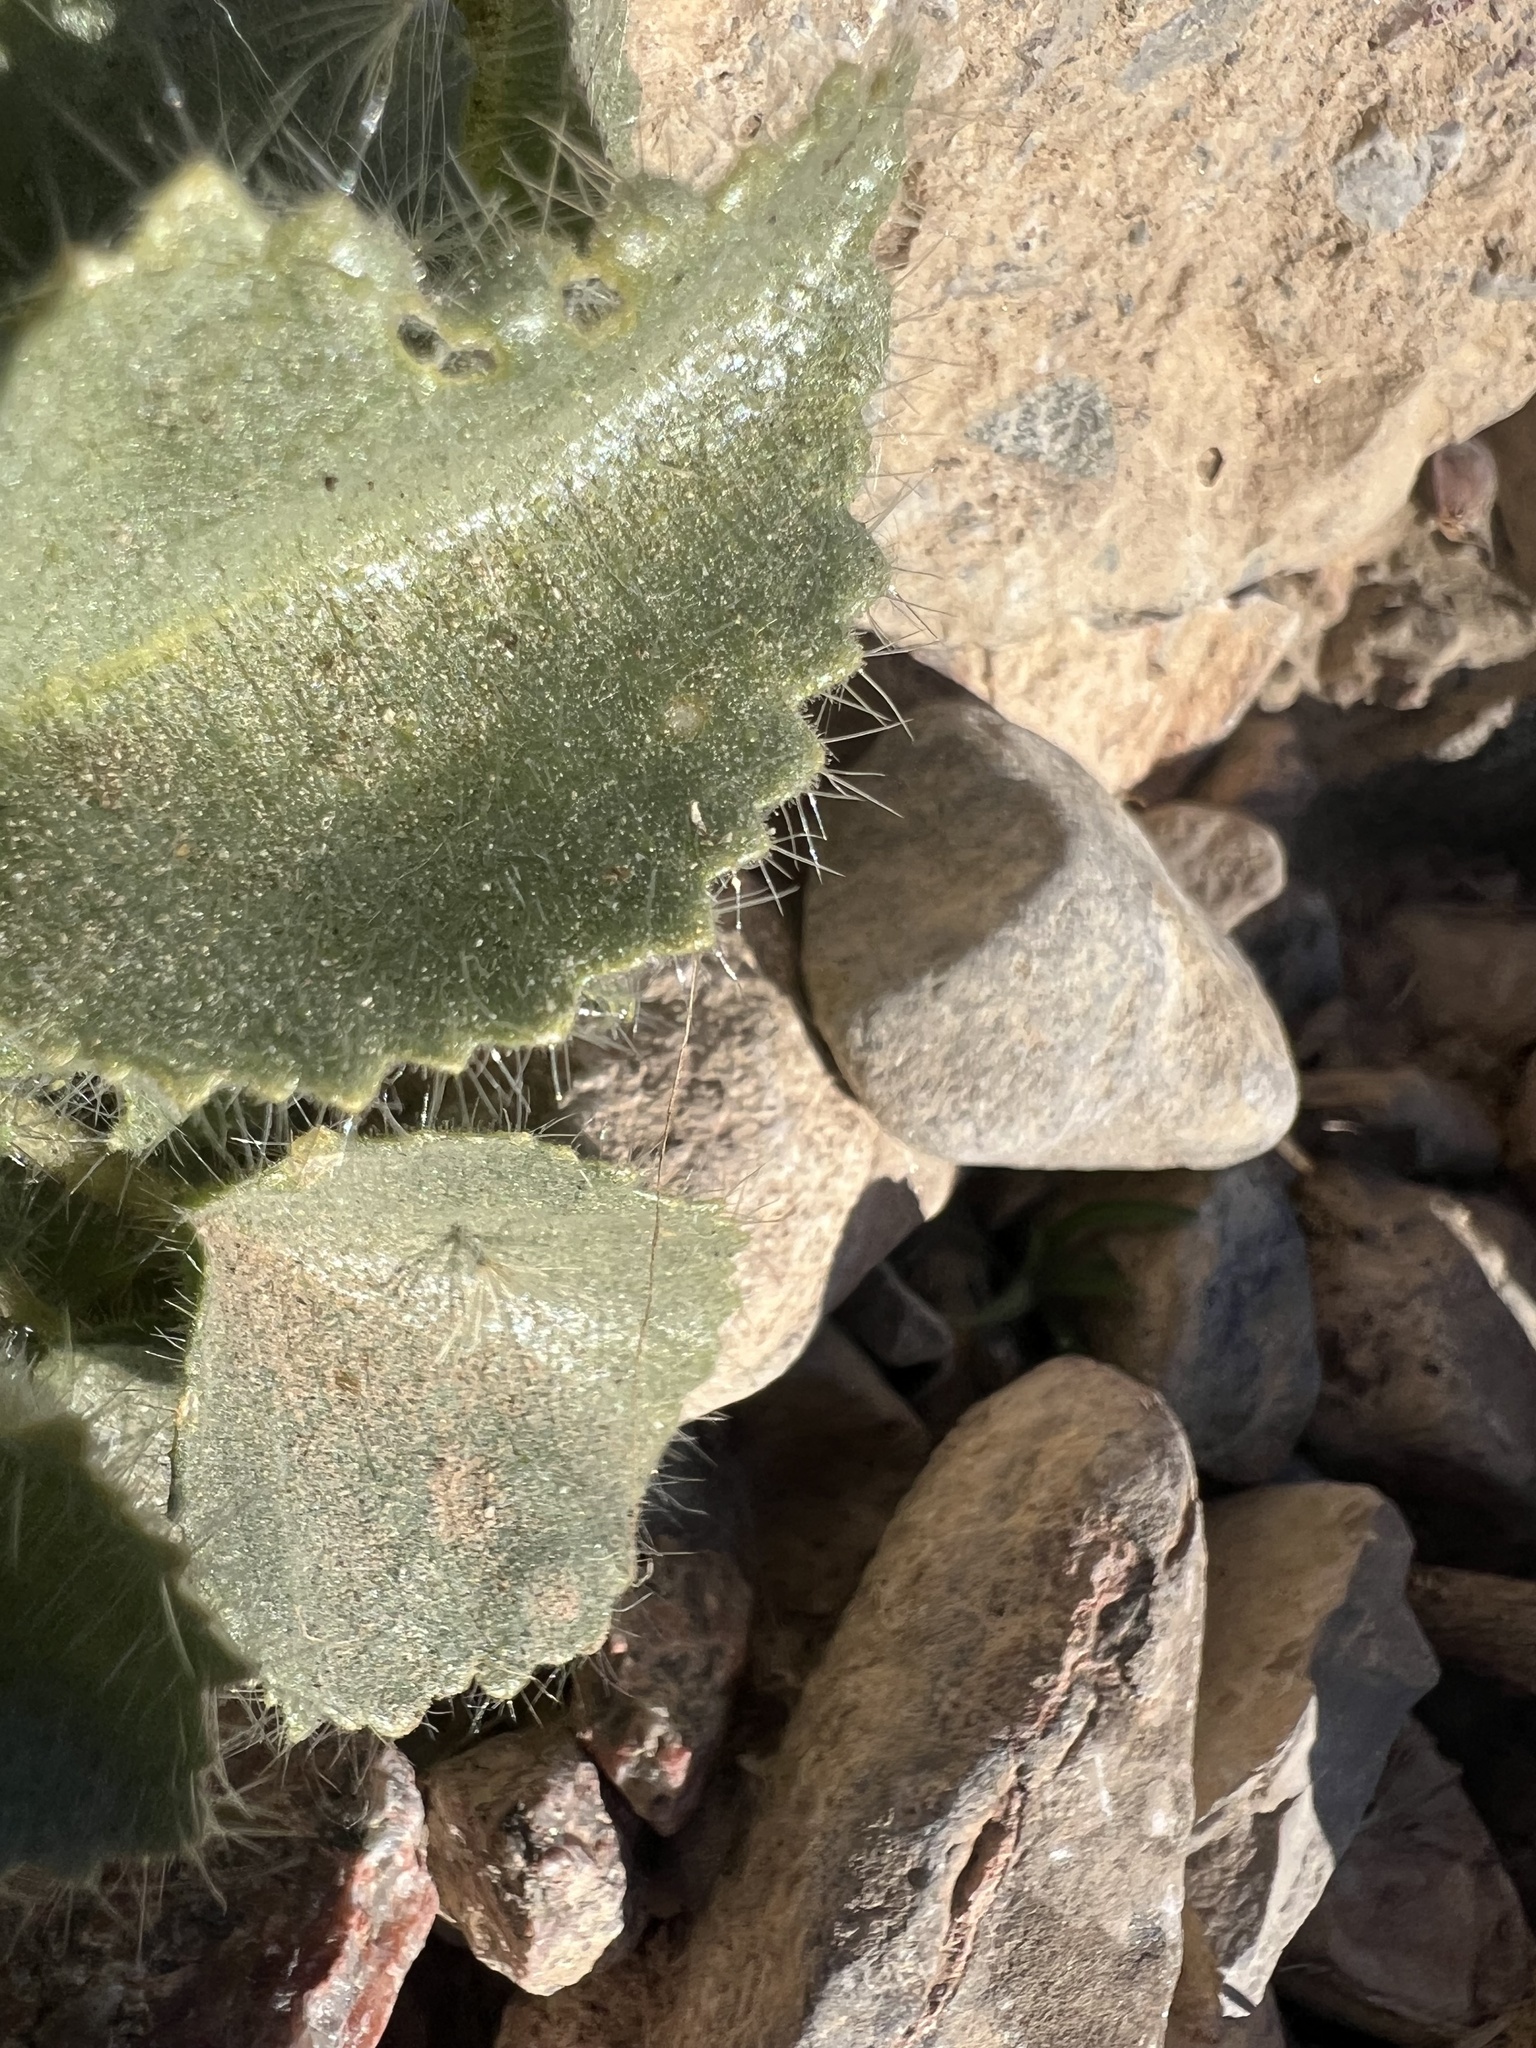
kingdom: Plantae
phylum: Tracheophyta
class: Magnoliopsida
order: Cornales
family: Loasaceae
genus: Eucnide
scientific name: Eucnide urens
